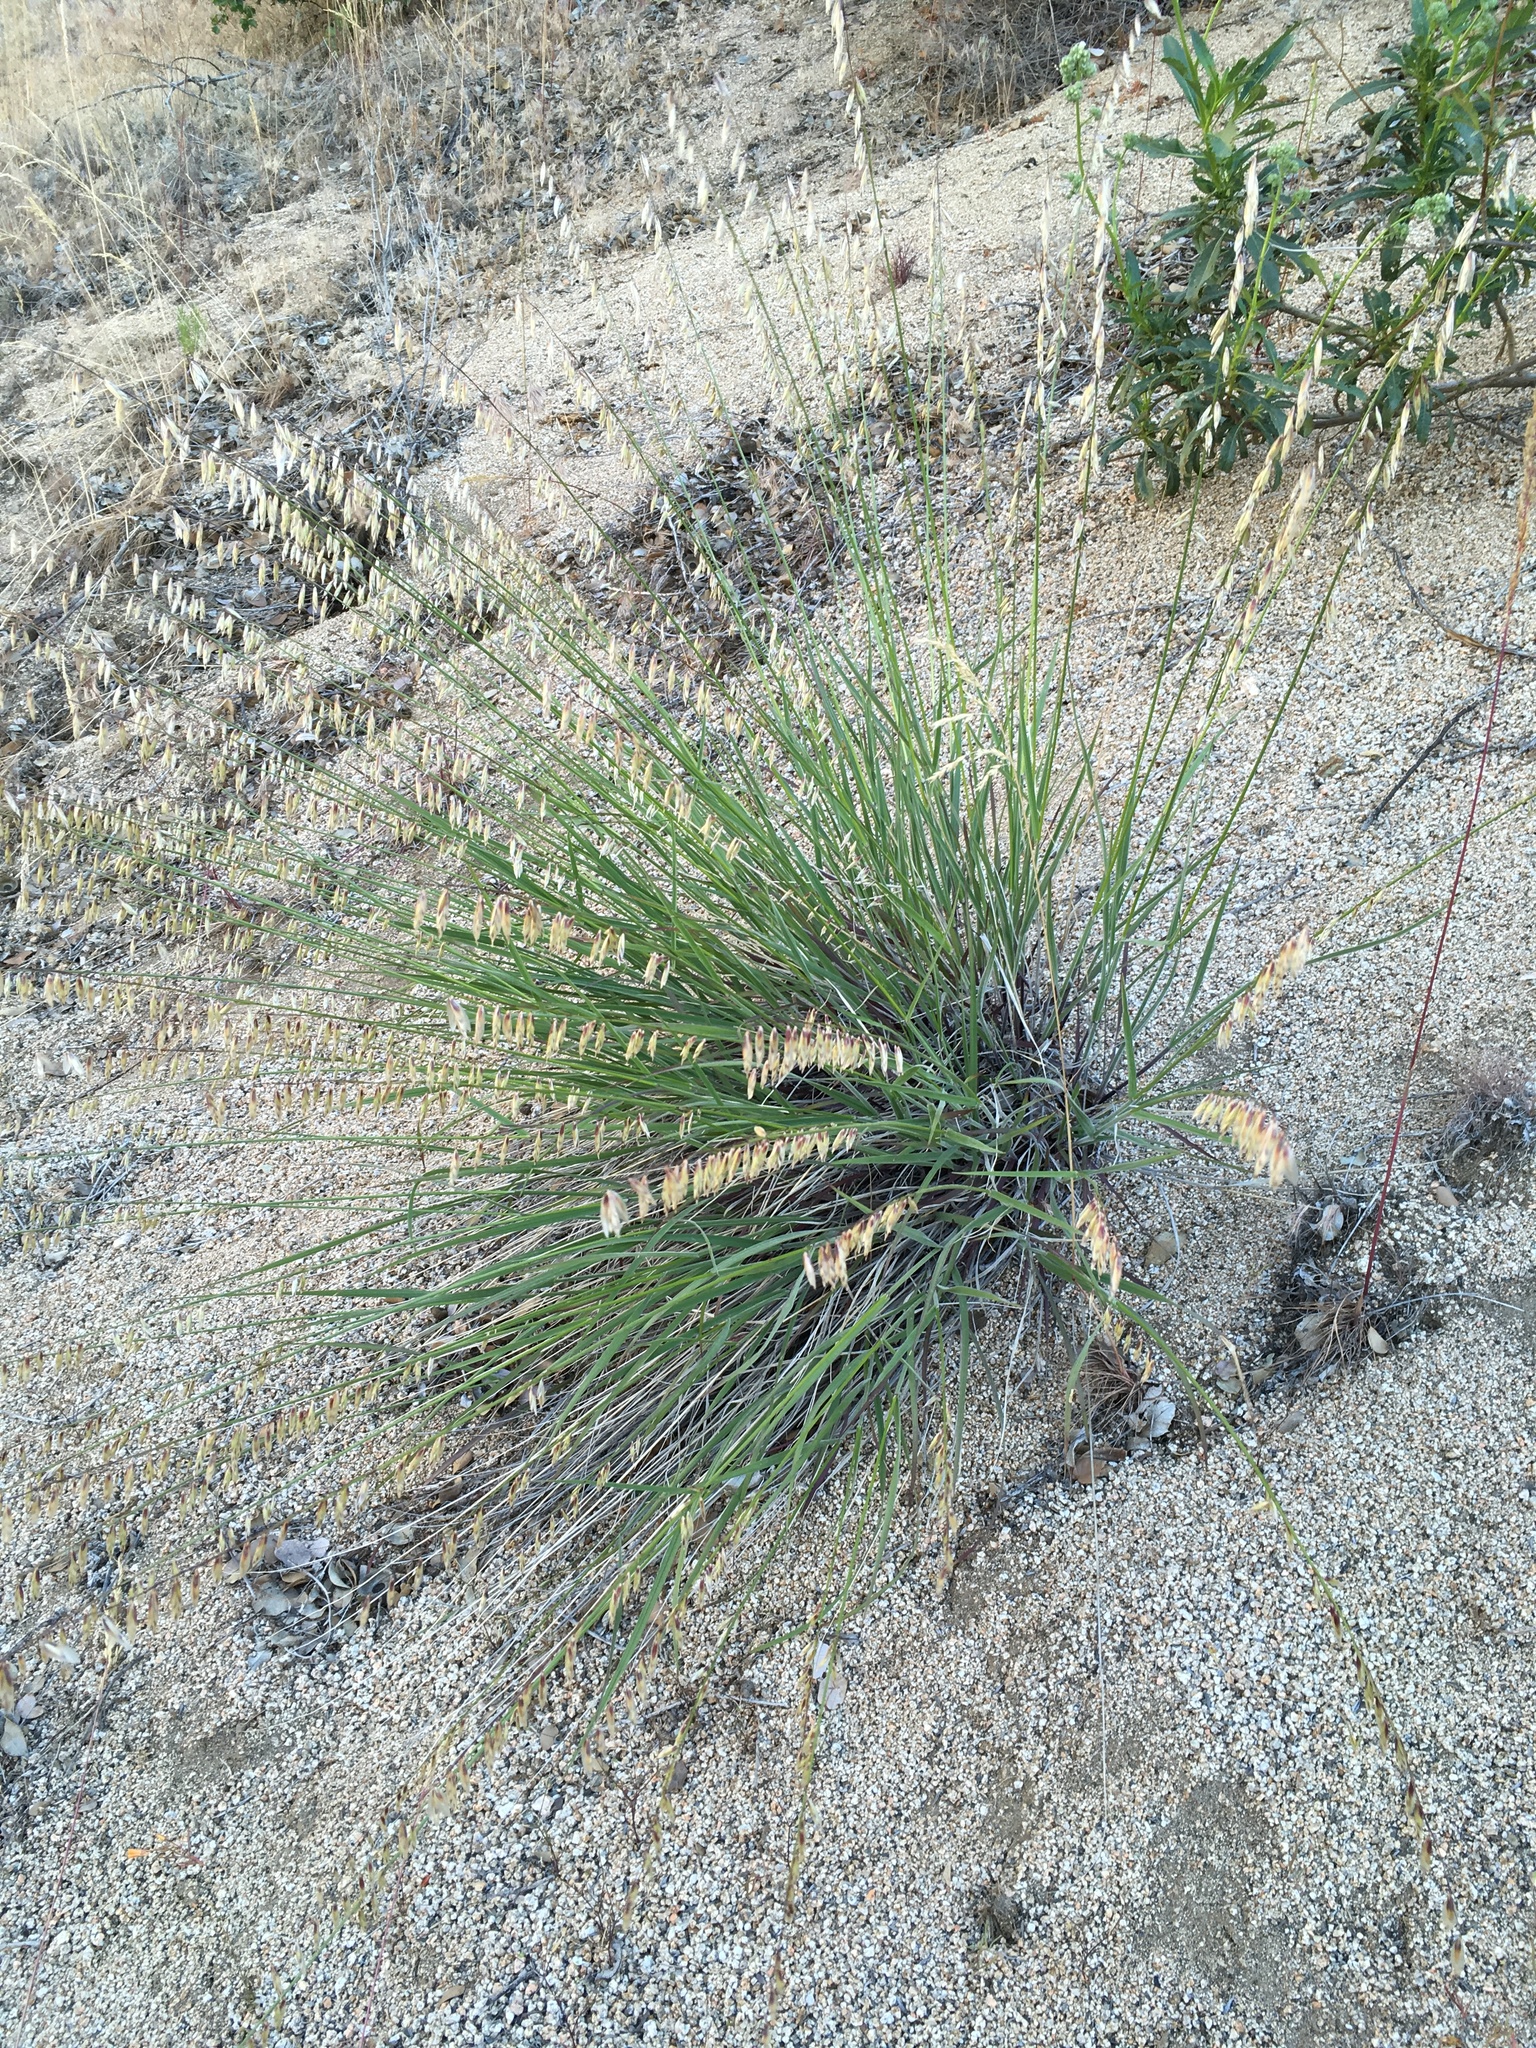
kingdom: Plantae
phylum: Tracheophyta
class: Liliopsida
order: Poales
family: Poaceae
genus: Melica
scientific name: Melica stricta
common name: Rock melic
